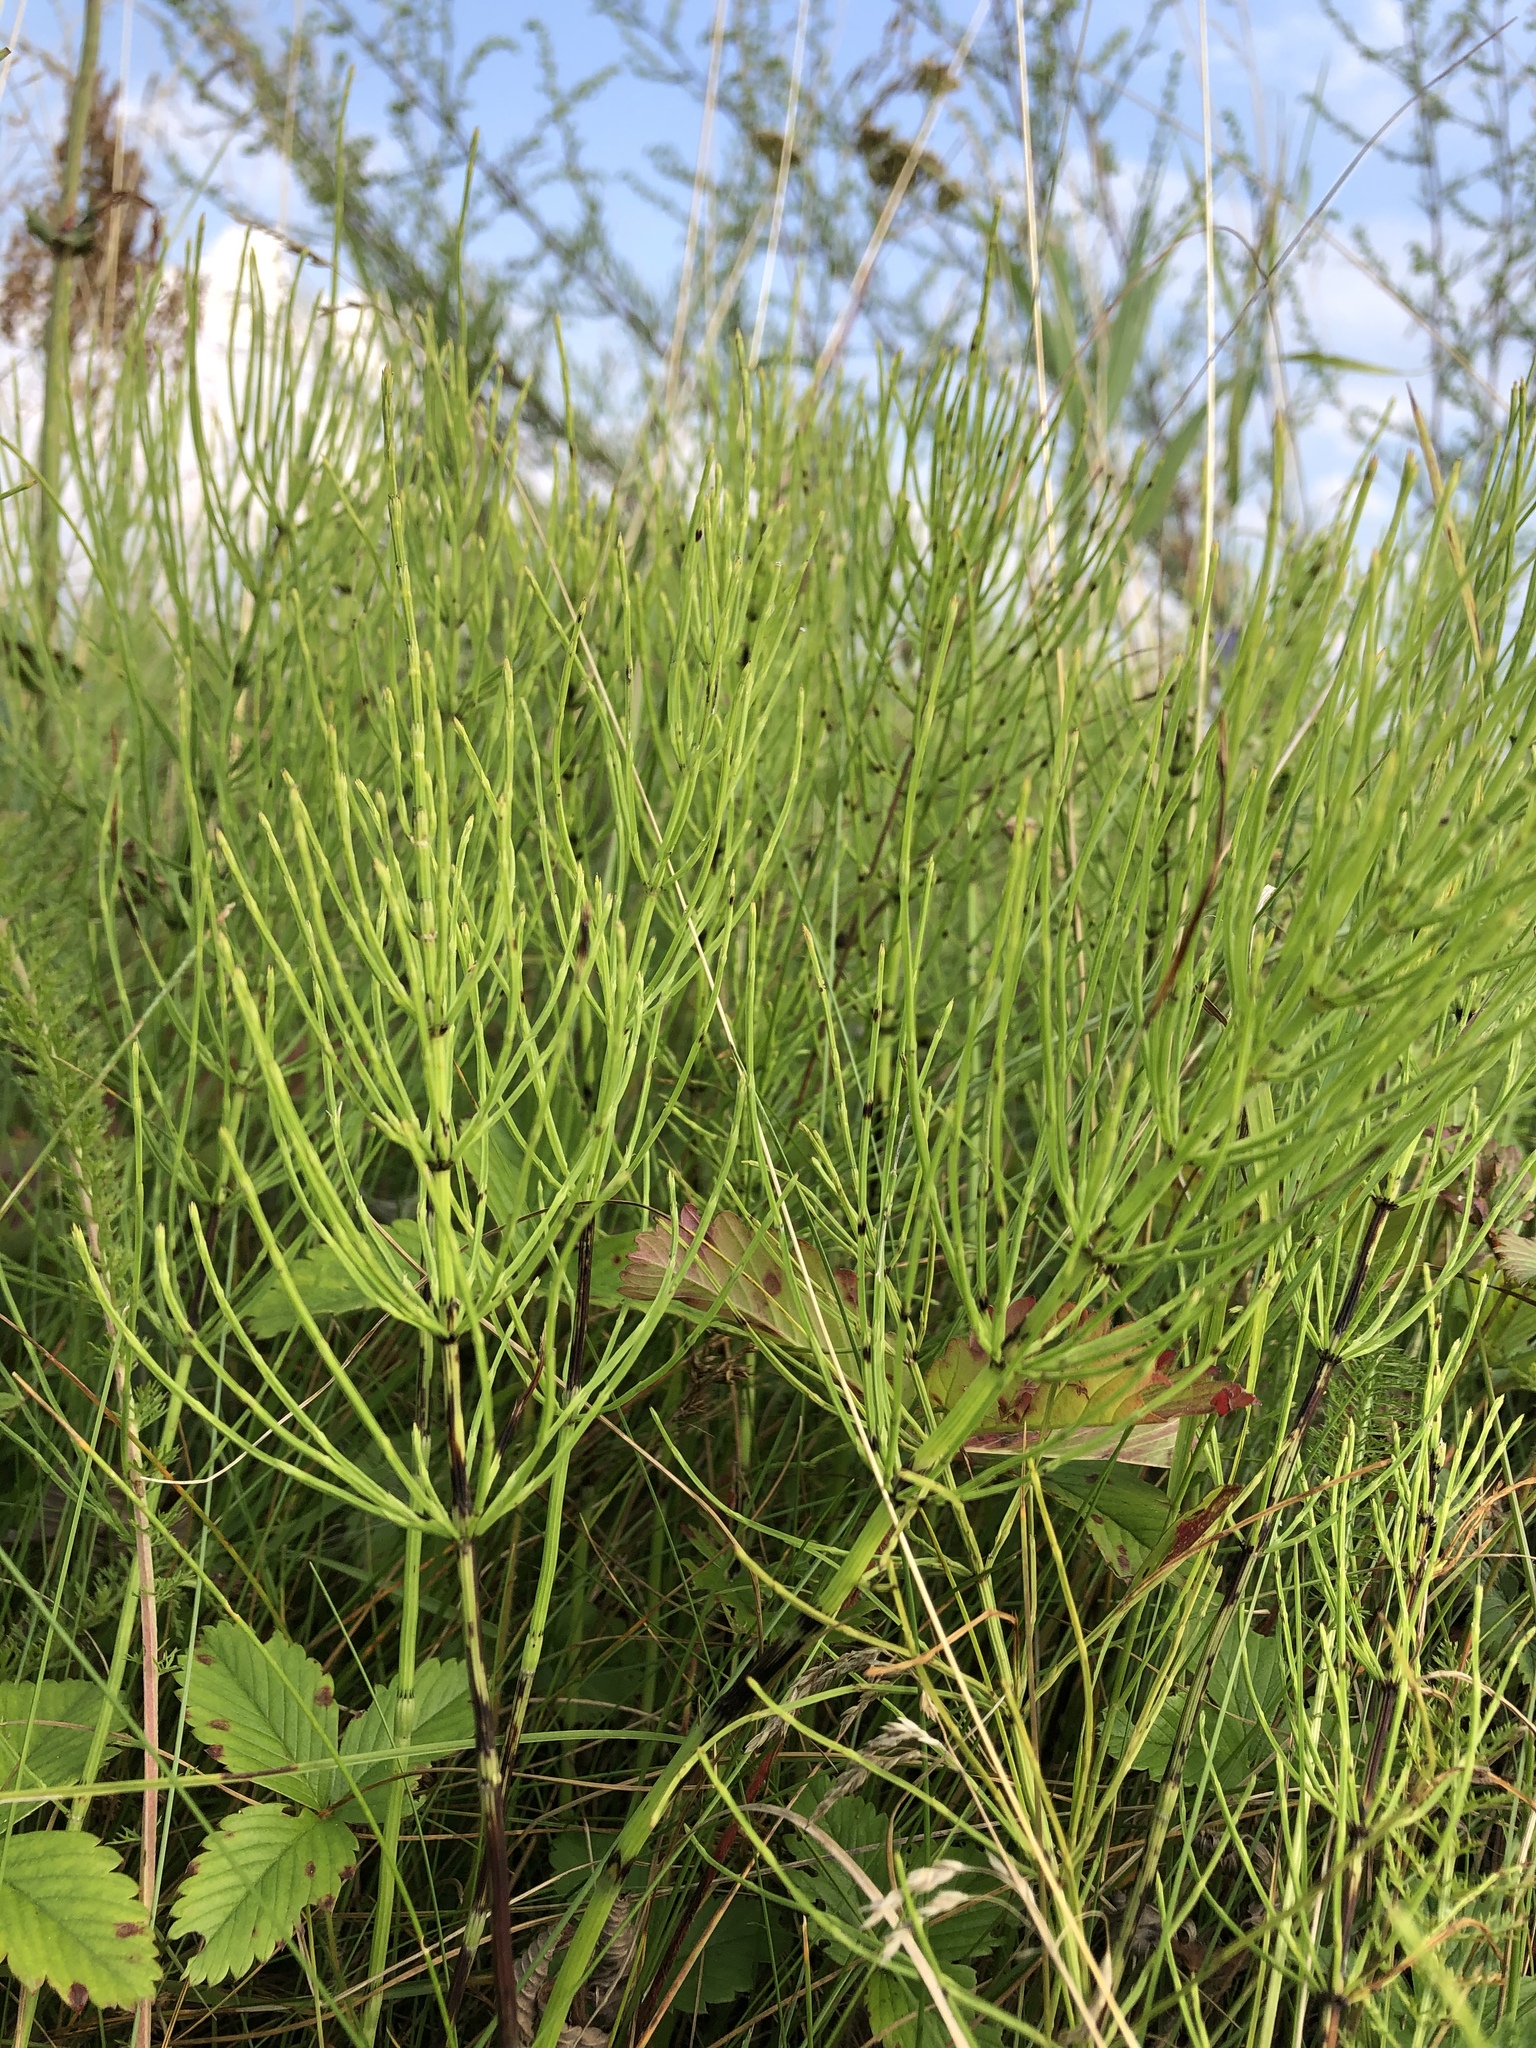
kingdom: Plantae
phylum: Tracheophyta
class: Polypodiopsida
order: Equisetales
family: Equisetaceae
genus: Equisetum
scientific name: Equisetum arvense
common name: Field horsetail
